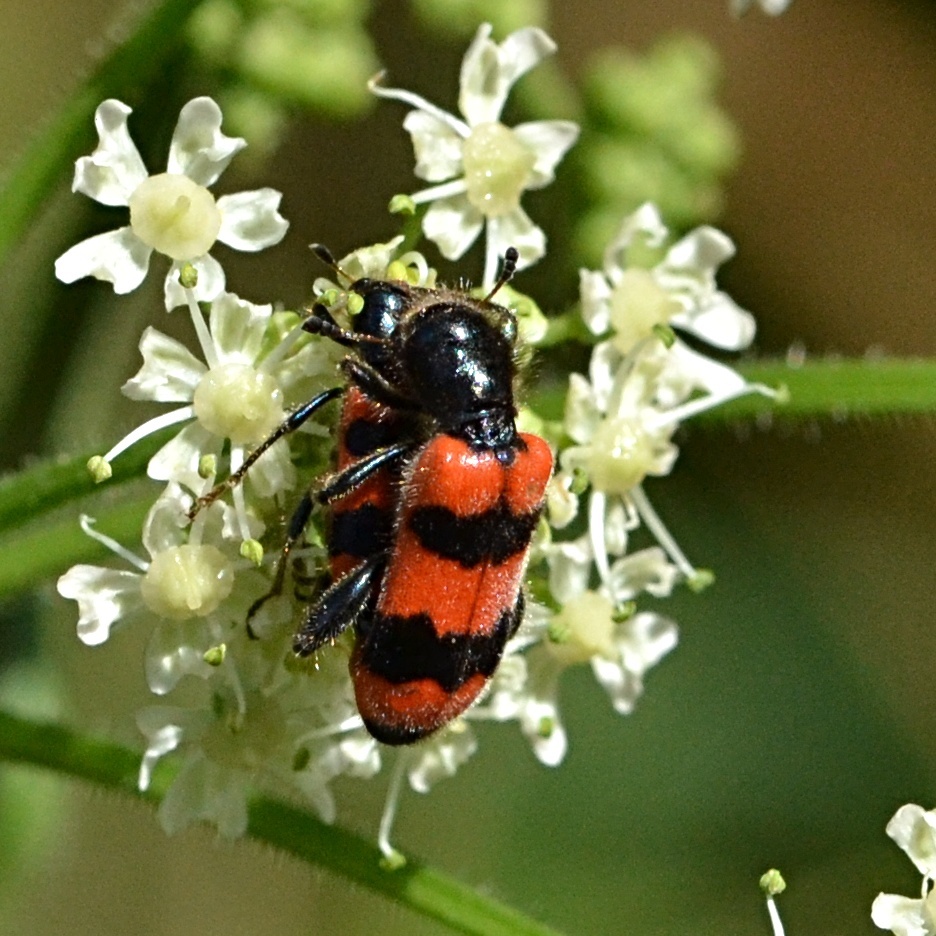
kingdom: Animalia
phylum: Arthropoda
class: Insecta
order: Coleoptera
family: Cleridae
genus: Trichodes
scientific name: Trichodes apiarius
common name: Bee-eating beetle
